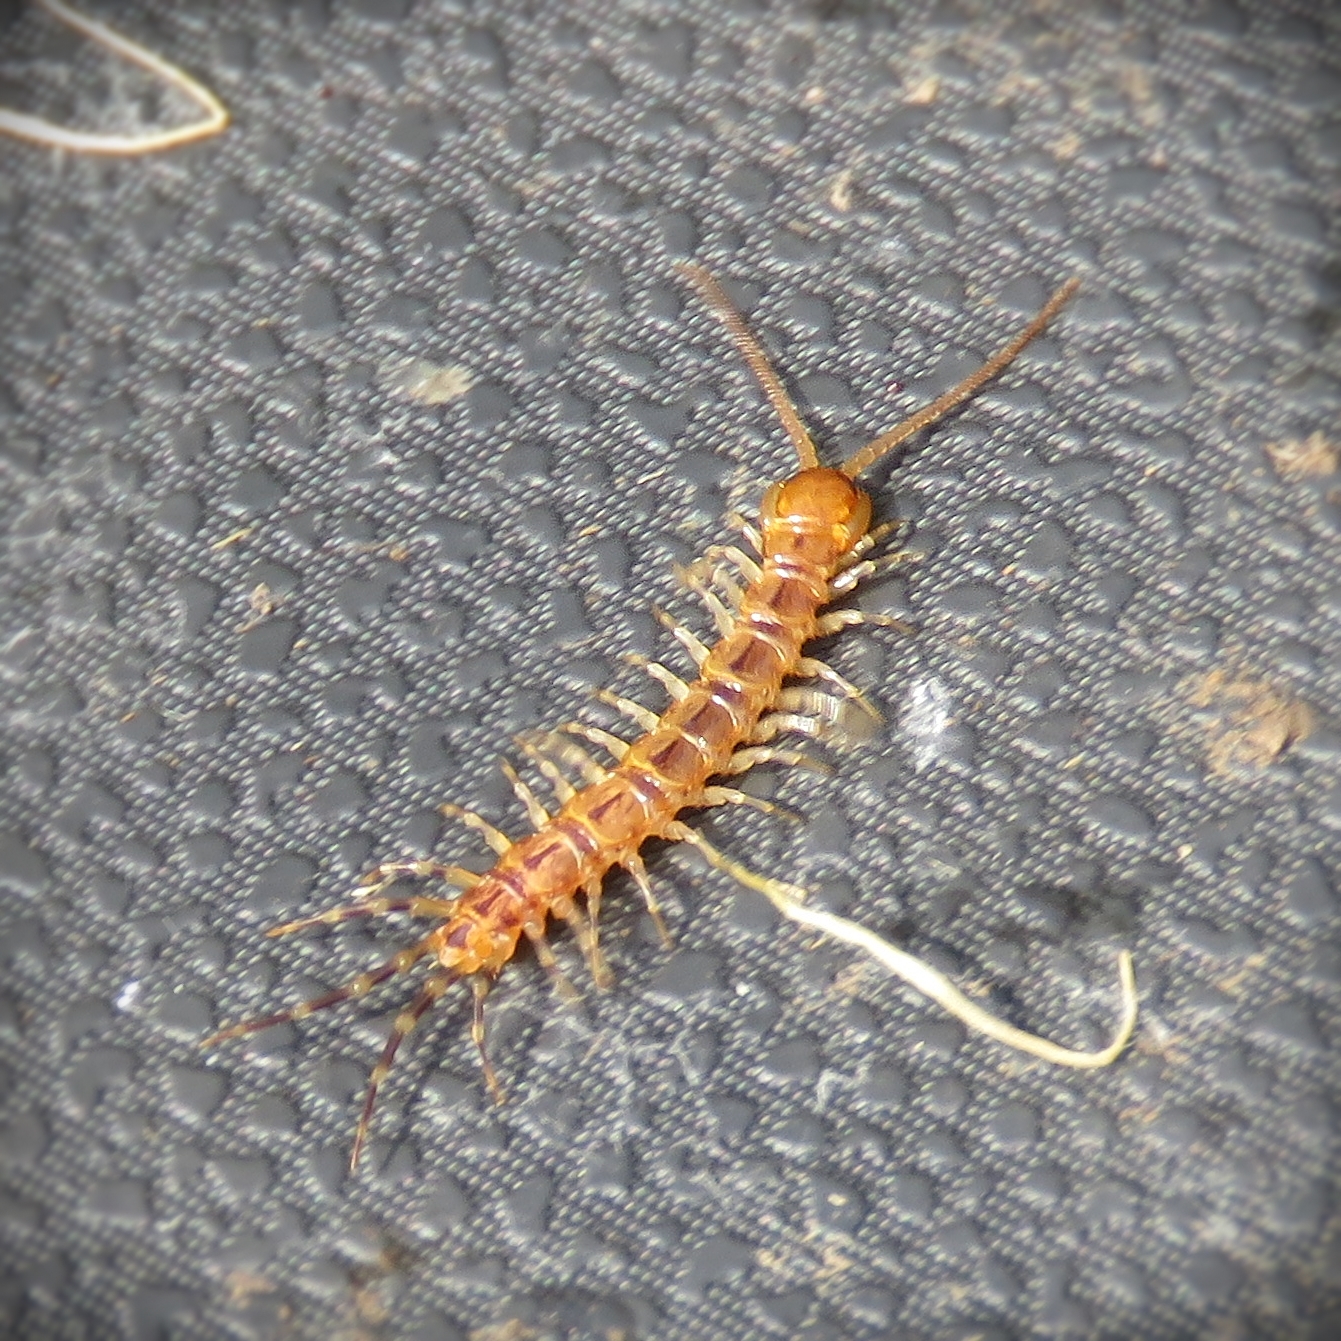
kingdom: Animalia
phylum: Arthropoda
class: Chilopoda
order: Lithobiomorpha
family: Lithobiidae
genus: Lithobius
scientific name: Lithobius variegatus
